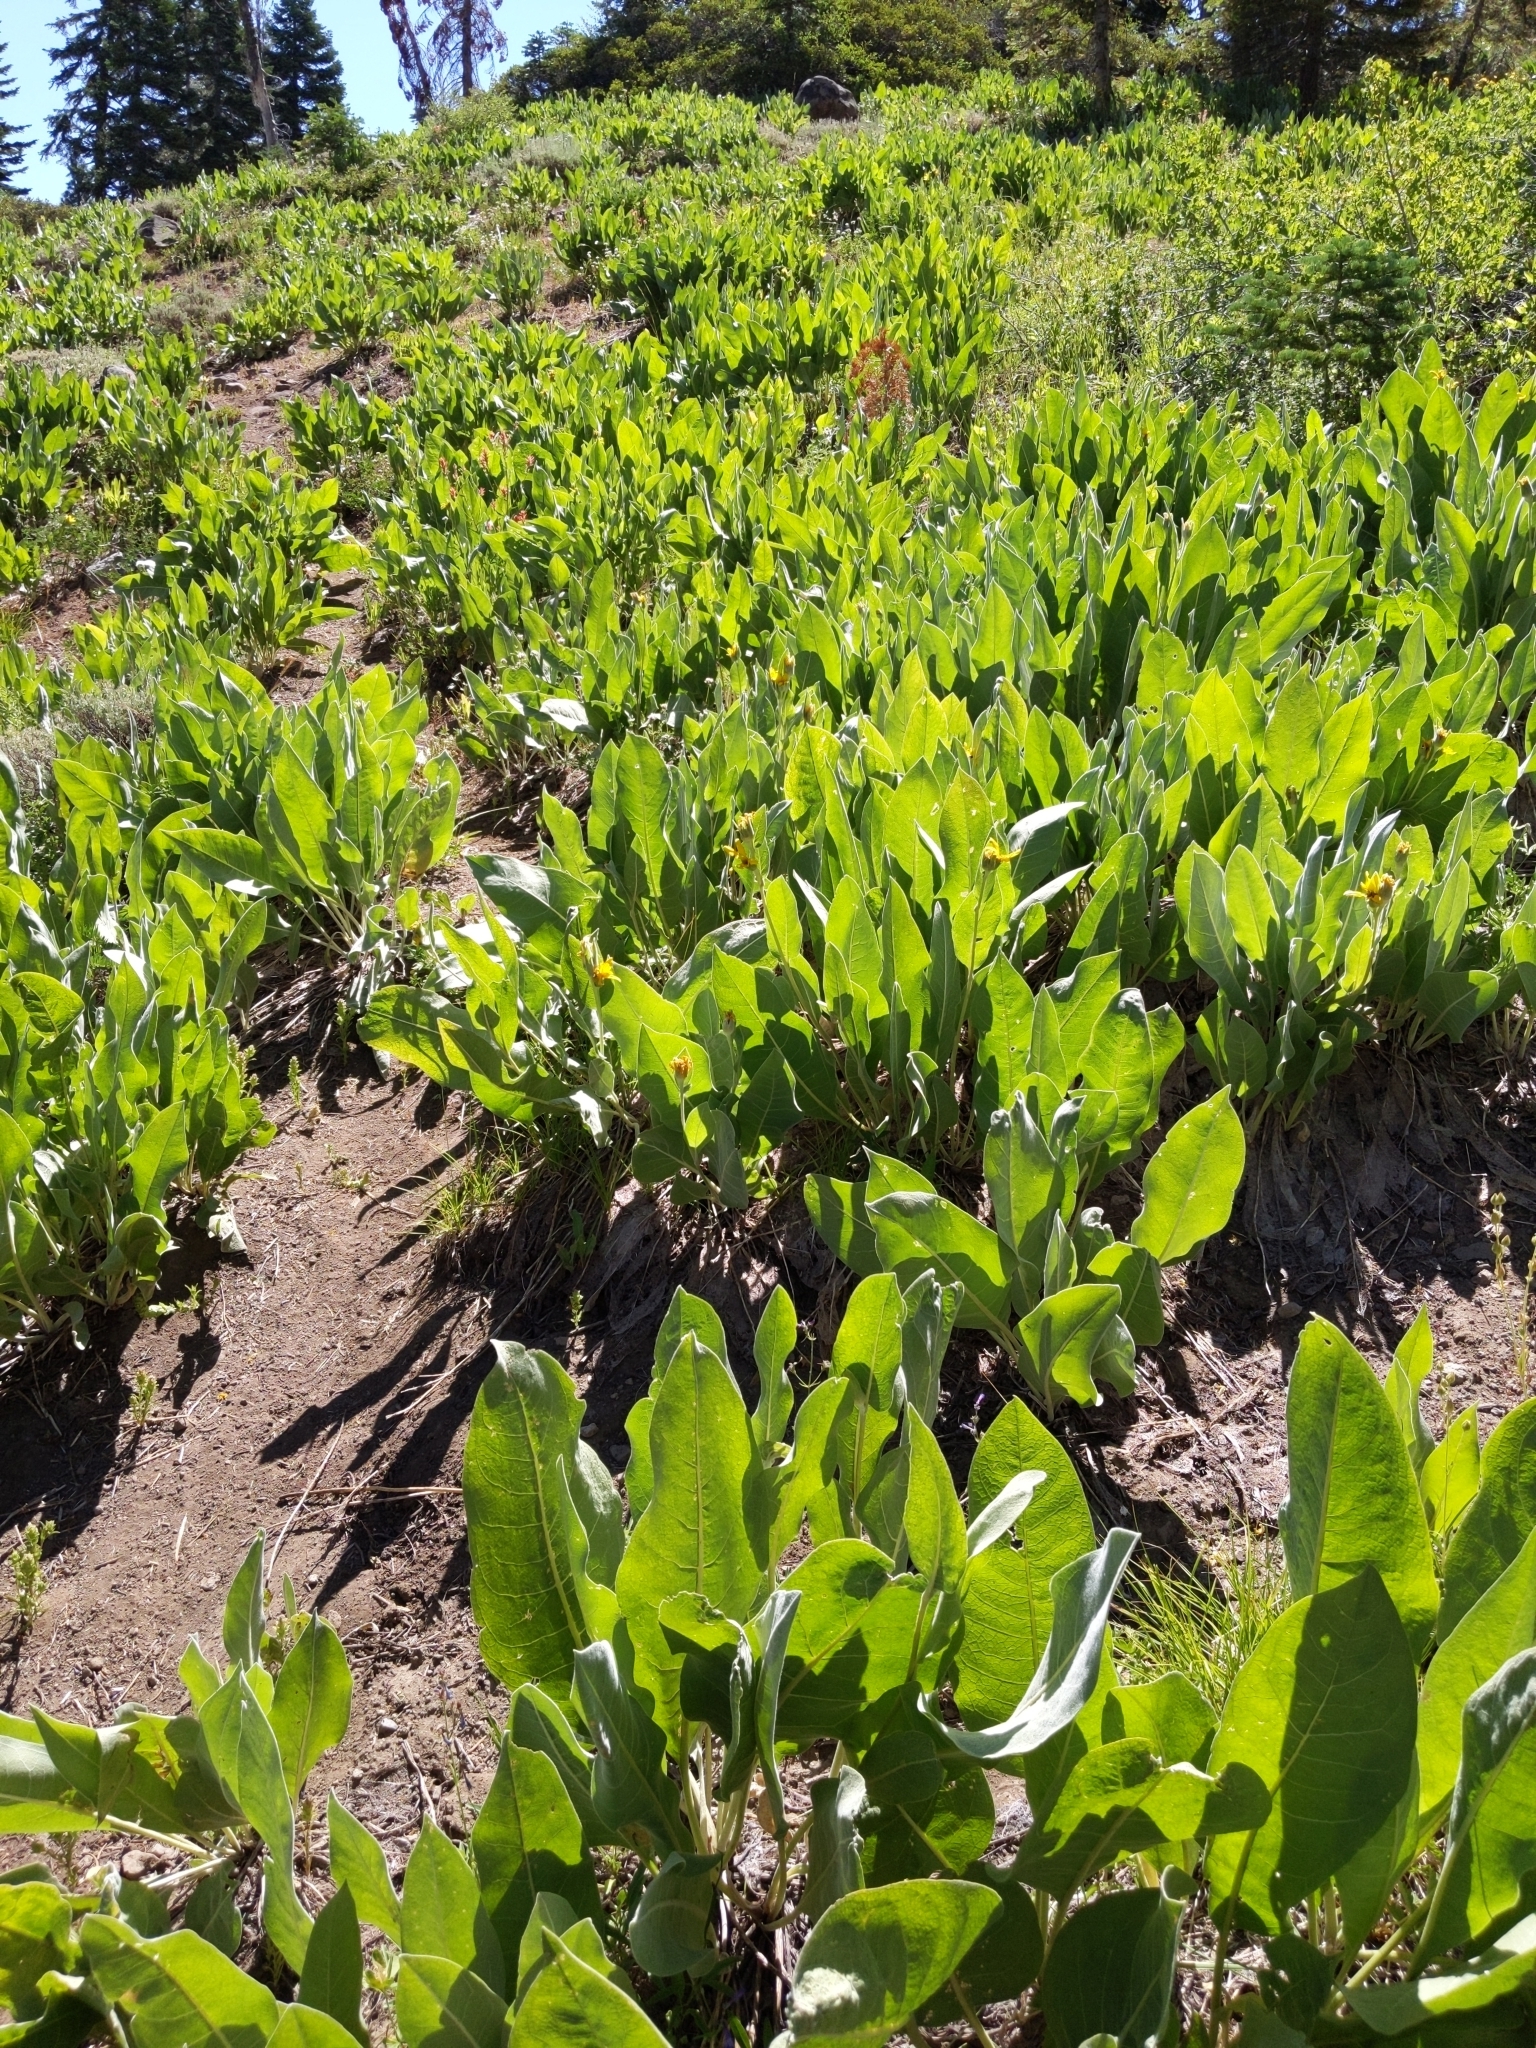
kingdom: Plantae
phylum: Tracheophyta
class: Magnoliopsida
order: Asterales
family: Asteraceae
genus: Wyethia
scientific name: Wyethia mollis
